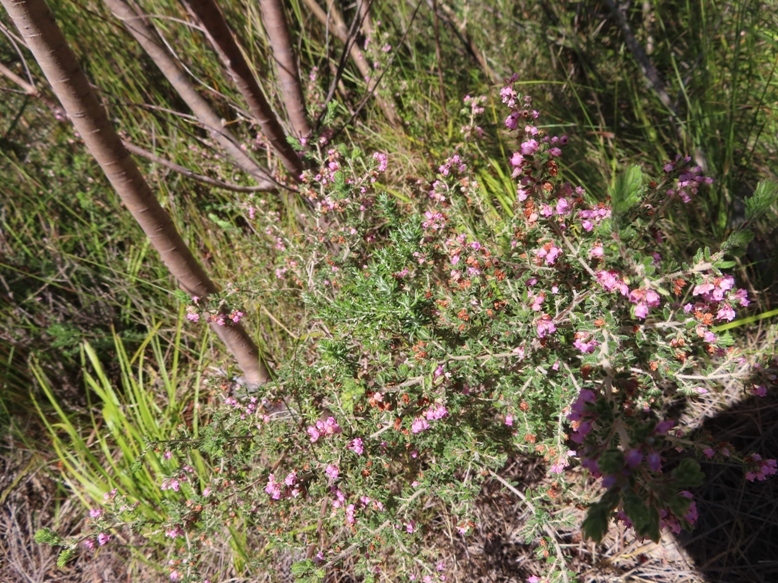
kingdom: Plantae
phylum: Tracheophyta
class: Magnoliopsida
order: Ericales
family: Ericaceae
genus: Erica
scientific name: Erica grata
